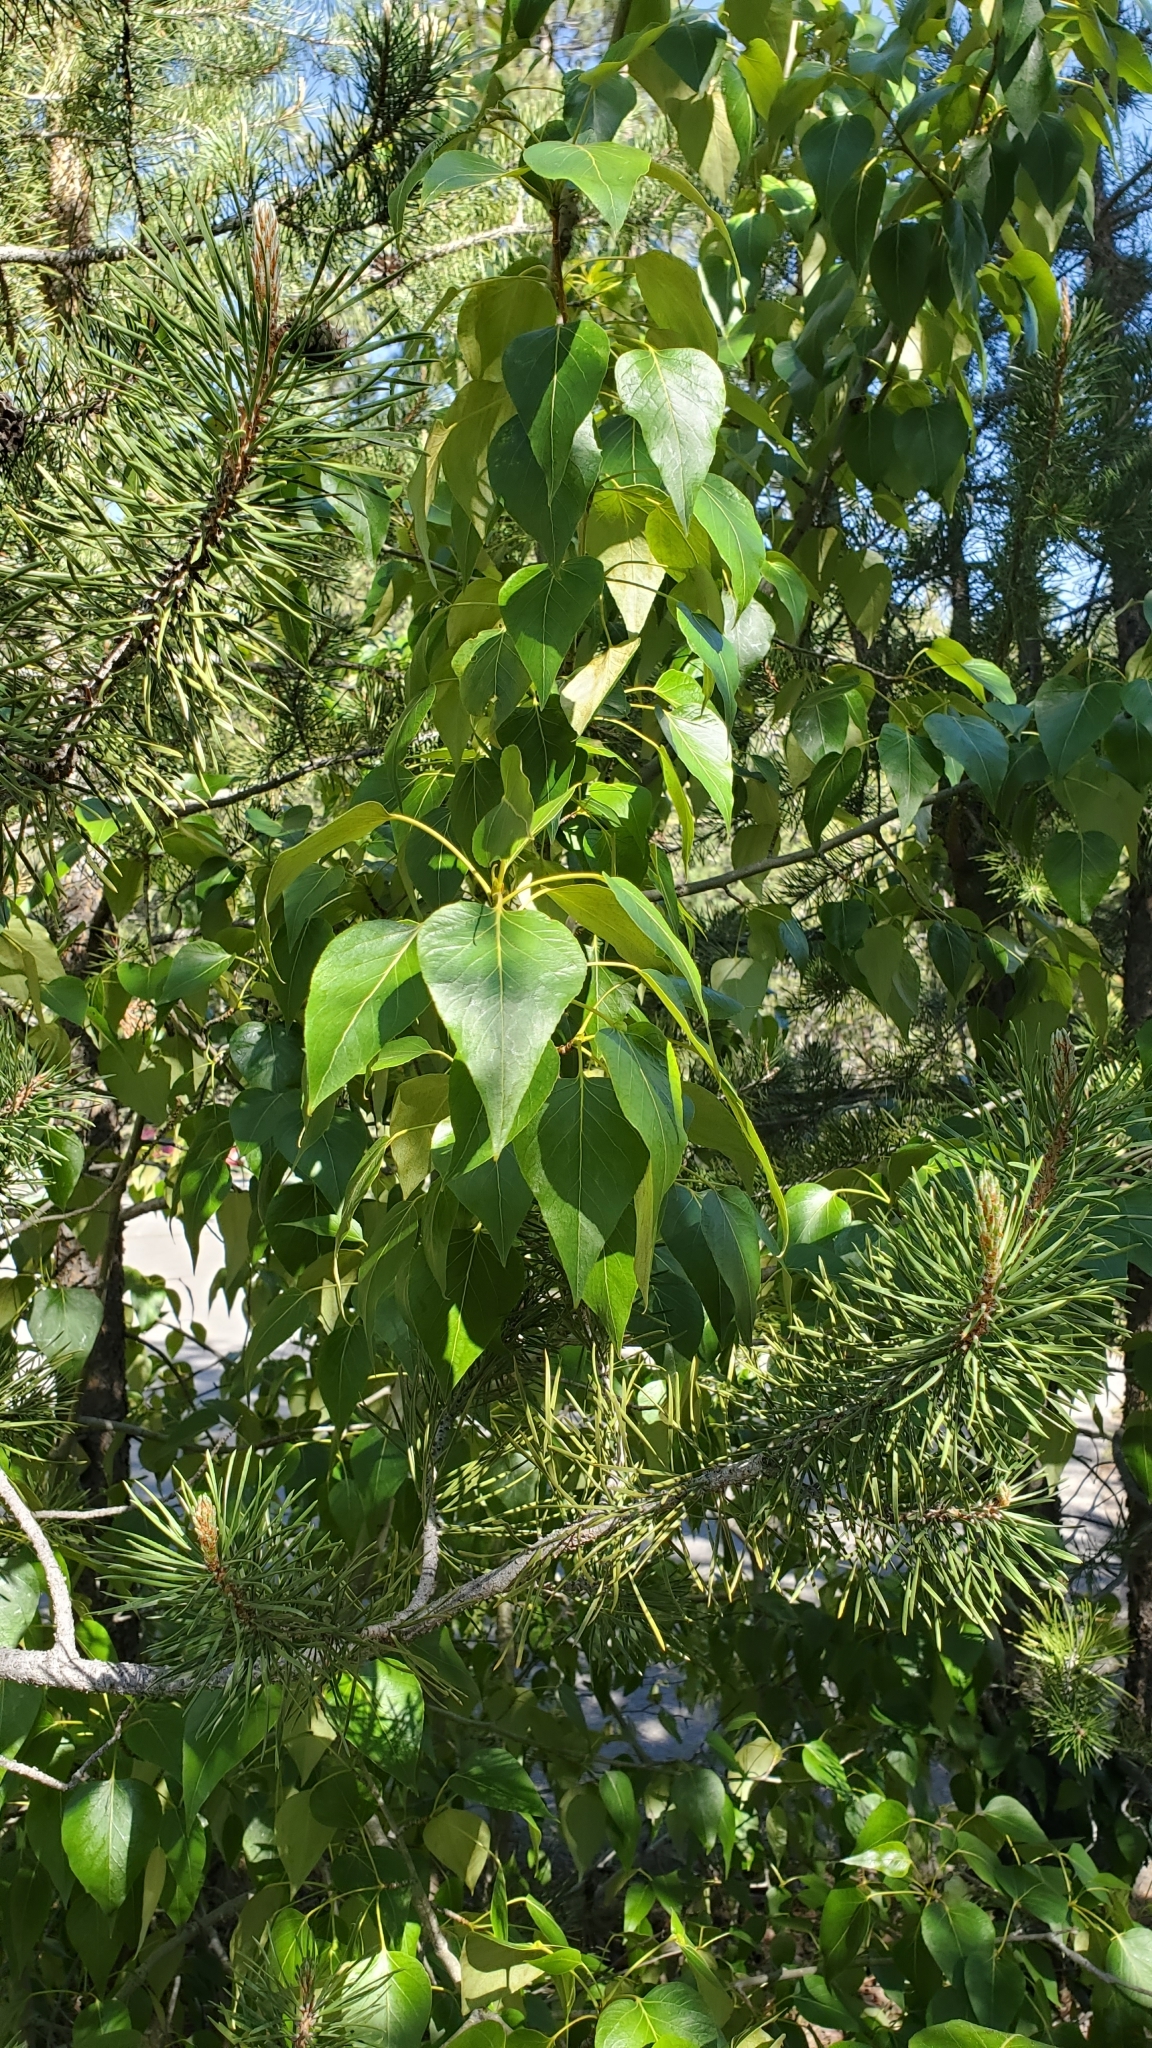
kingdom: Plantae
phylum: Tracheophyta
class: Magnoliopsida
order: Malpighiales
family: Salicaceae
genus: Populus
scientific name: Populus trichocarpa
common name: Black cottonwood
